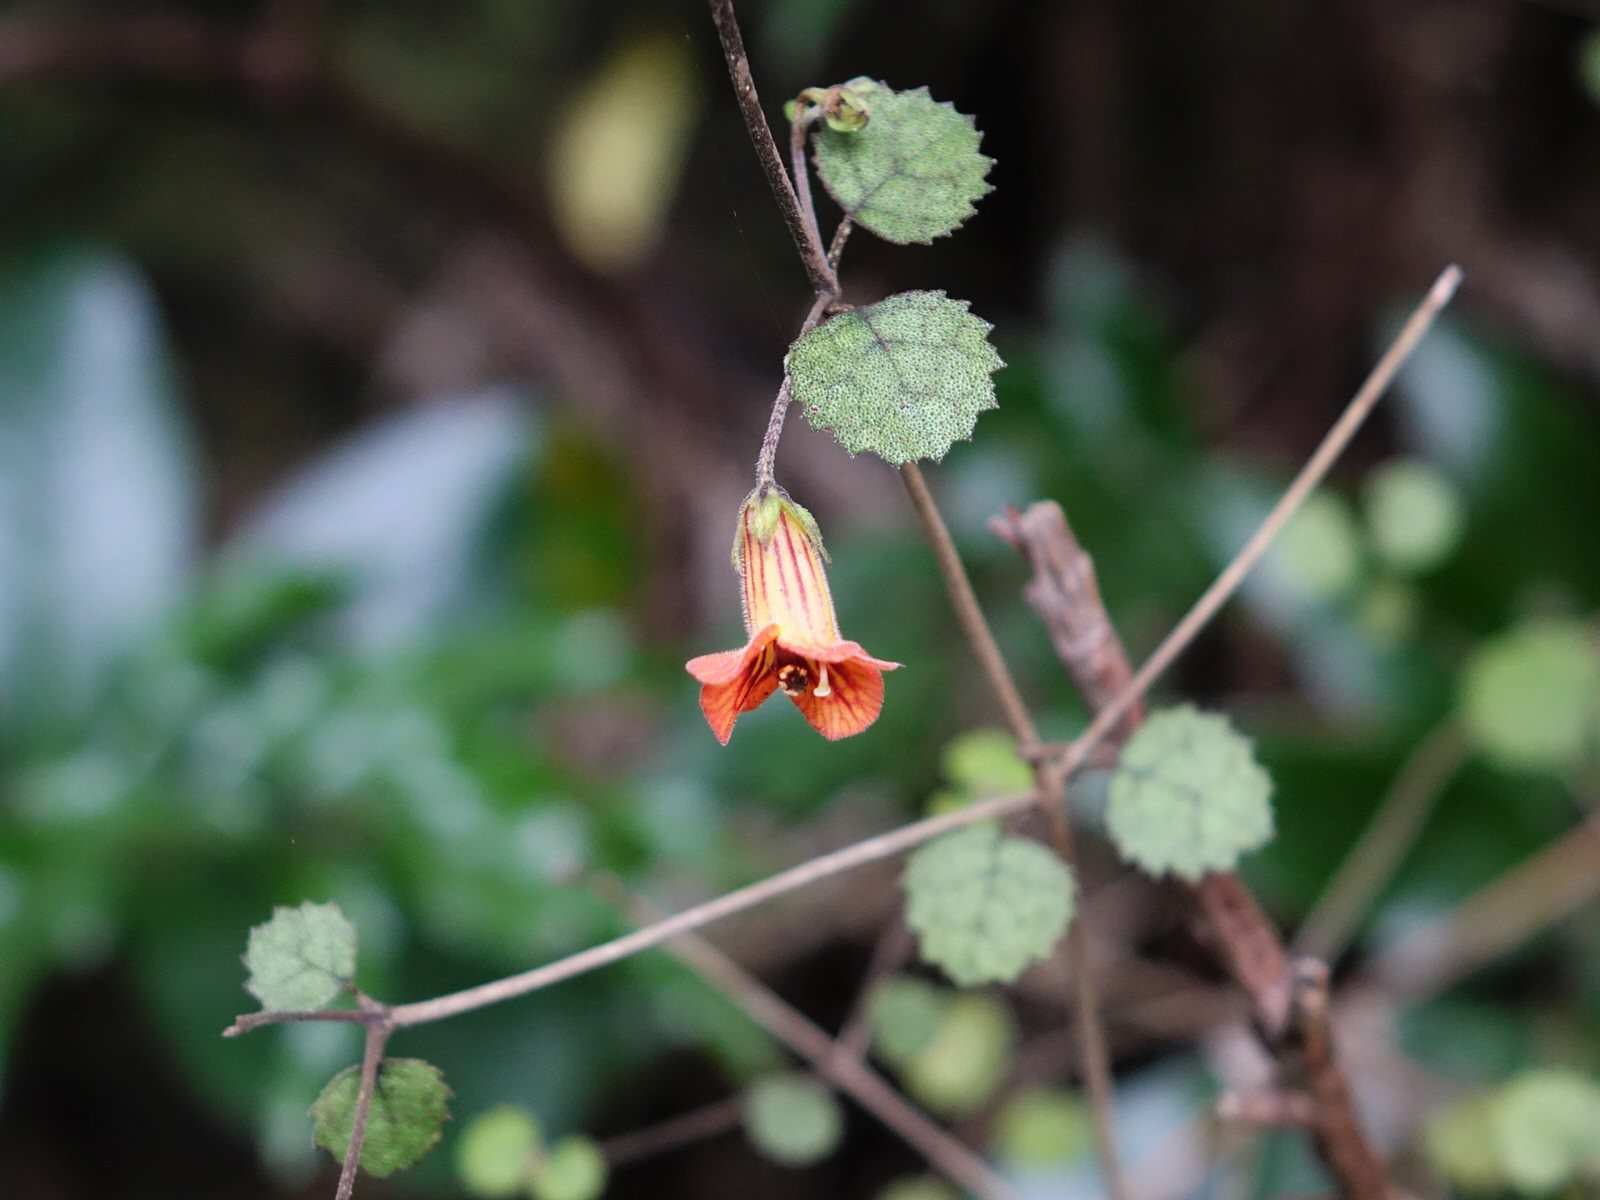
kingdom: Plantae
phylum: Tracheophyta
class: Magnoliopsida
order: Lamiales
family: Gesneriaceae
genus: Rhabdothamnus
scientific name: Rhabdothamnus solandri
